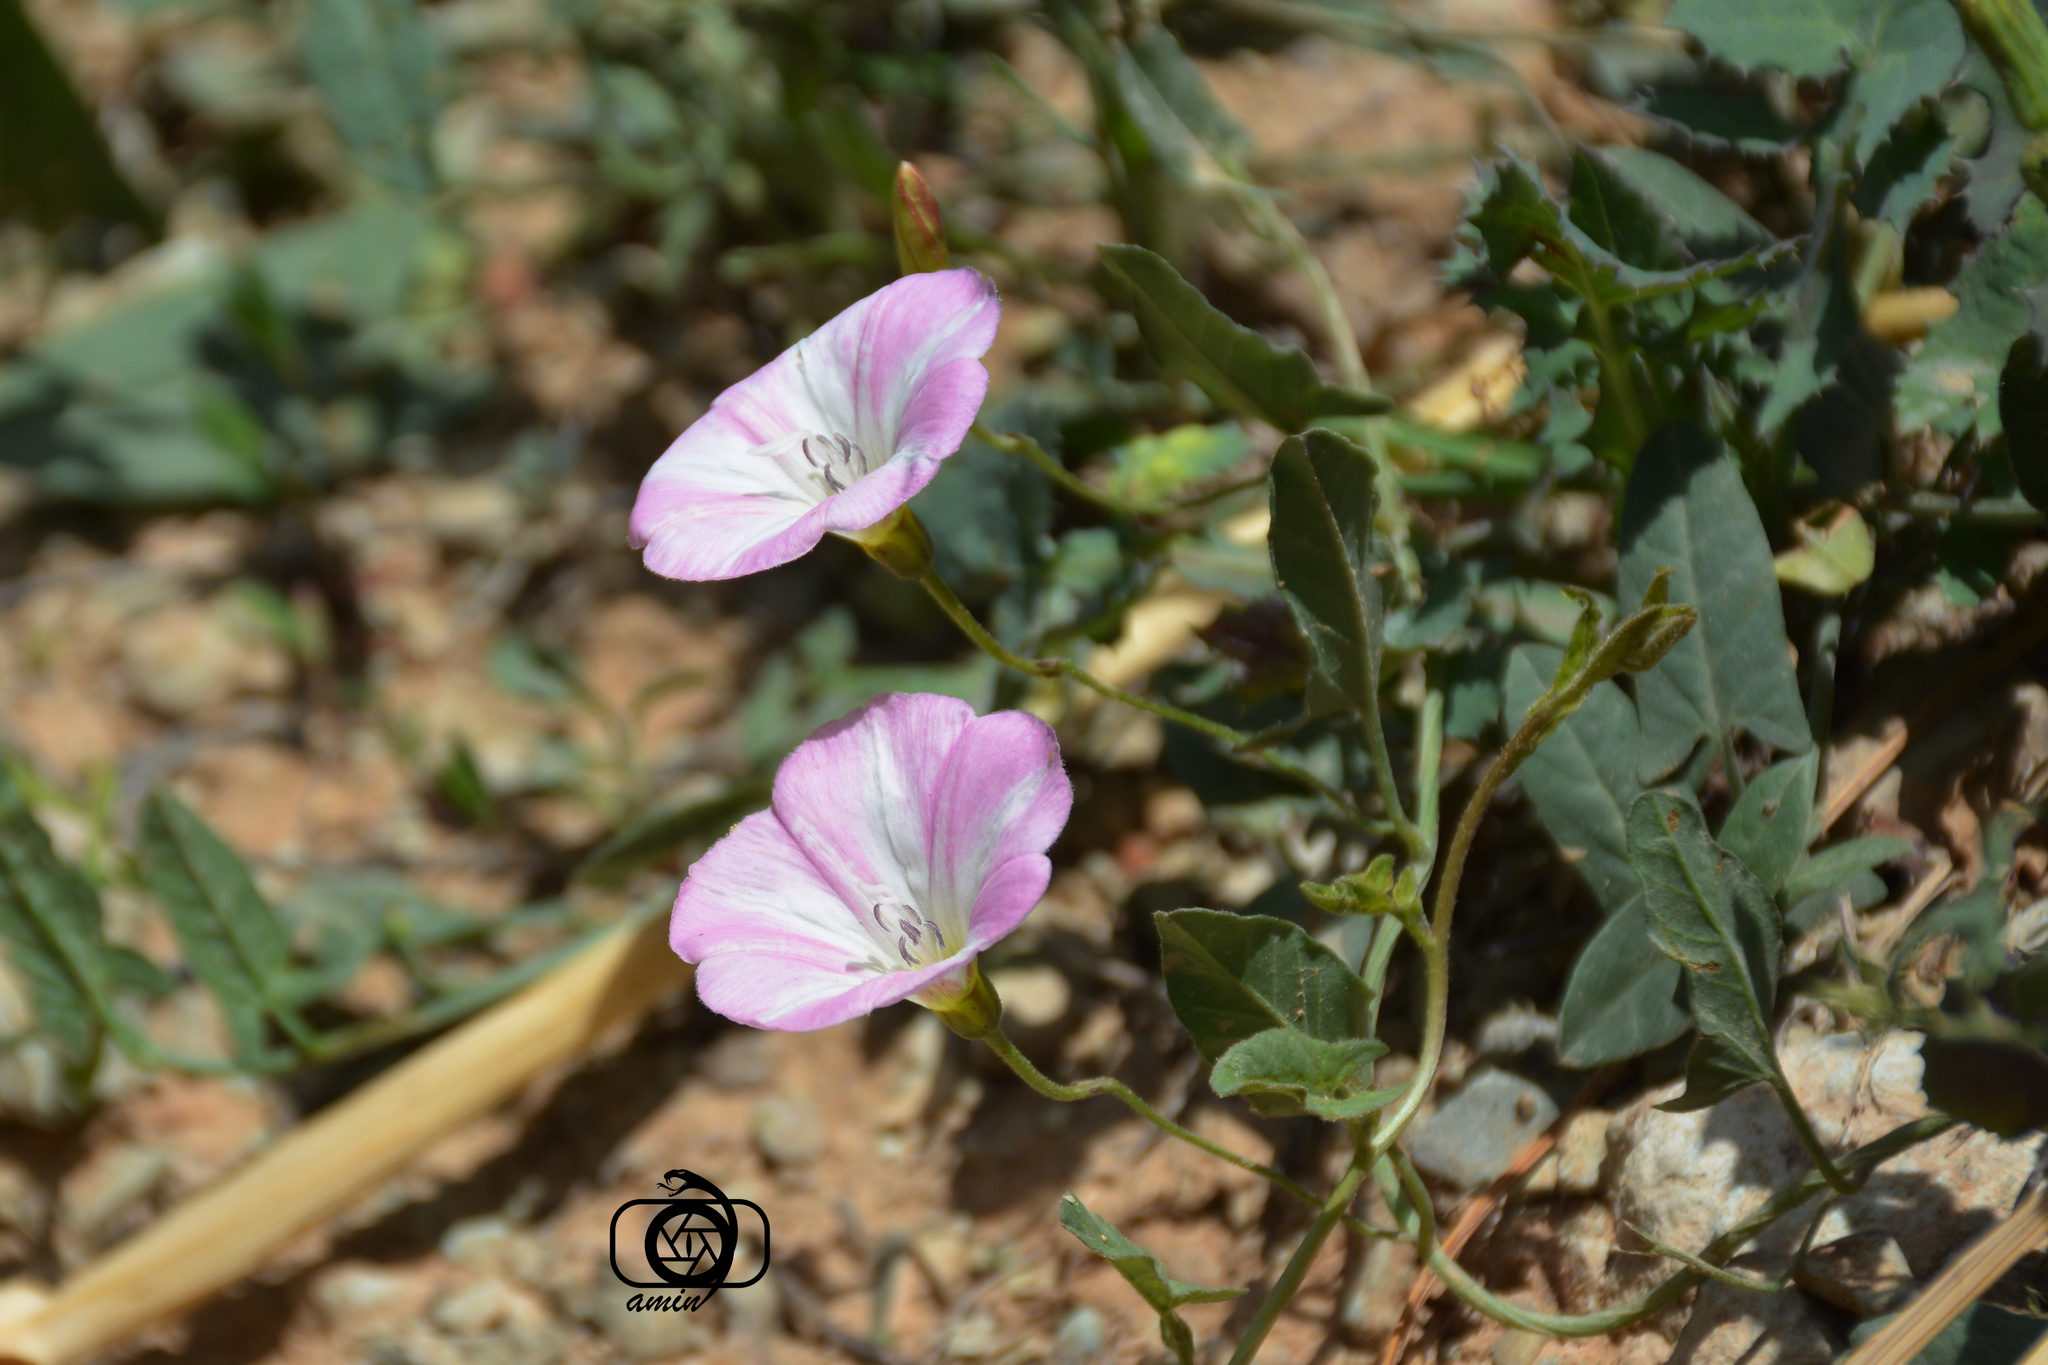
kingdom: Plantae
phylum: Tracheophyta
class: Magnoliopsida
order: Solanales
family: Convolvulaceae
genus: Convolvulus
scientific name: Convolvulus arvensis
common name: Field bindweed
